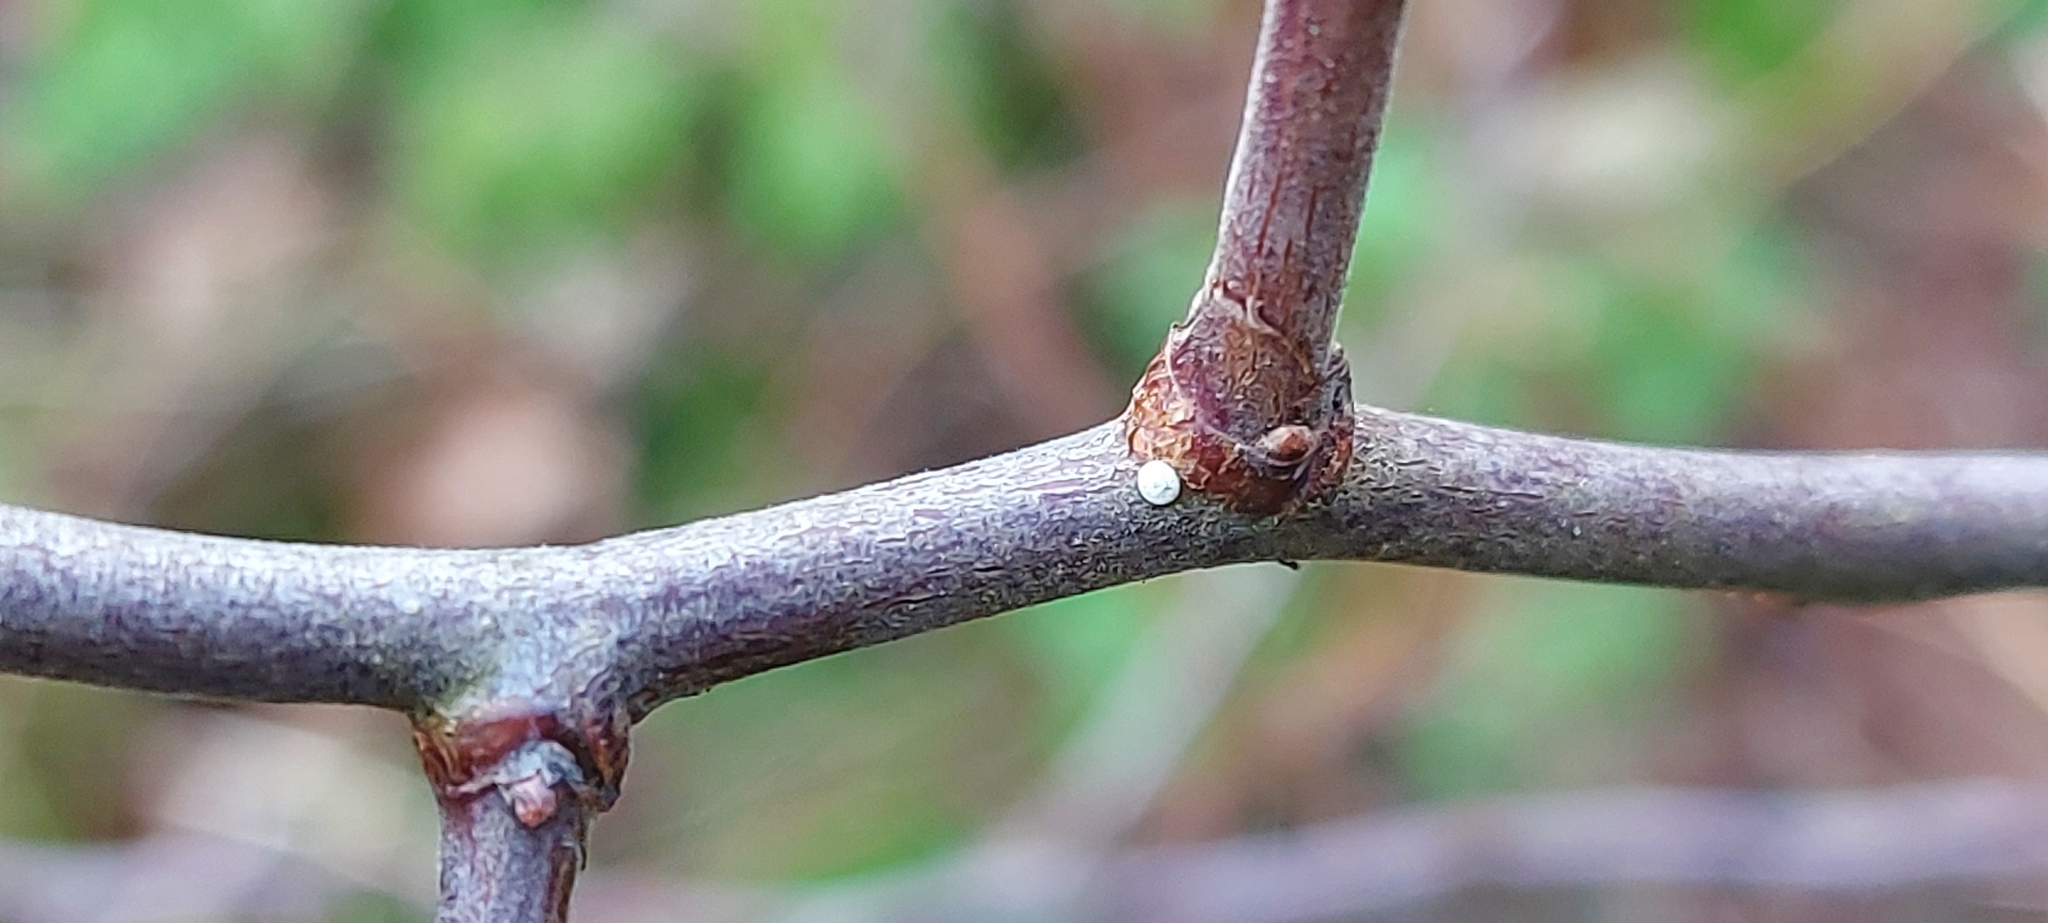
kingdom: Animalia
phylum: Arthropoda
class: Insecta
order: Lepidoptera
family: Lycaenidae
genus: Thecla
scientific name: Thecla betulae
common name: Brown hairstreak
